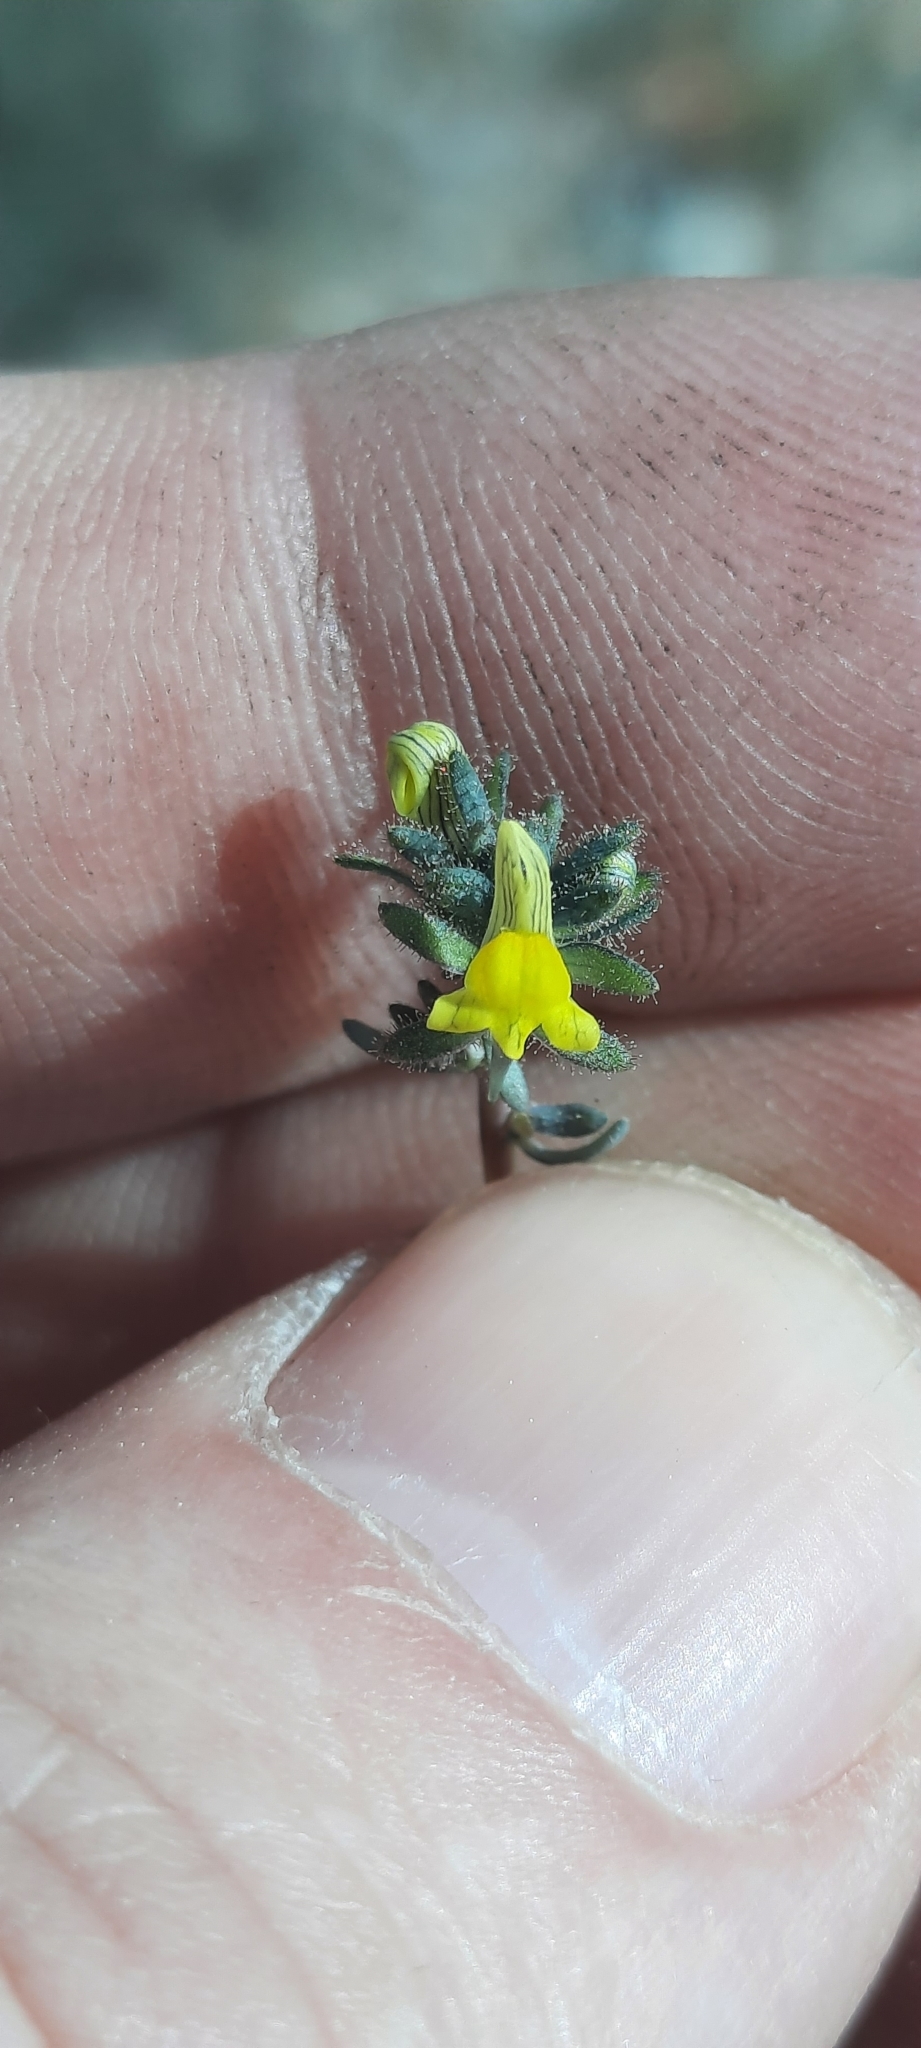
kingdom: Plantae
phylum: Tracheophyta
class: Magnoliopsida
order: Lamiales
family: Plantaginaceae
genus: Linaria
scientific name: Linaria simplex
